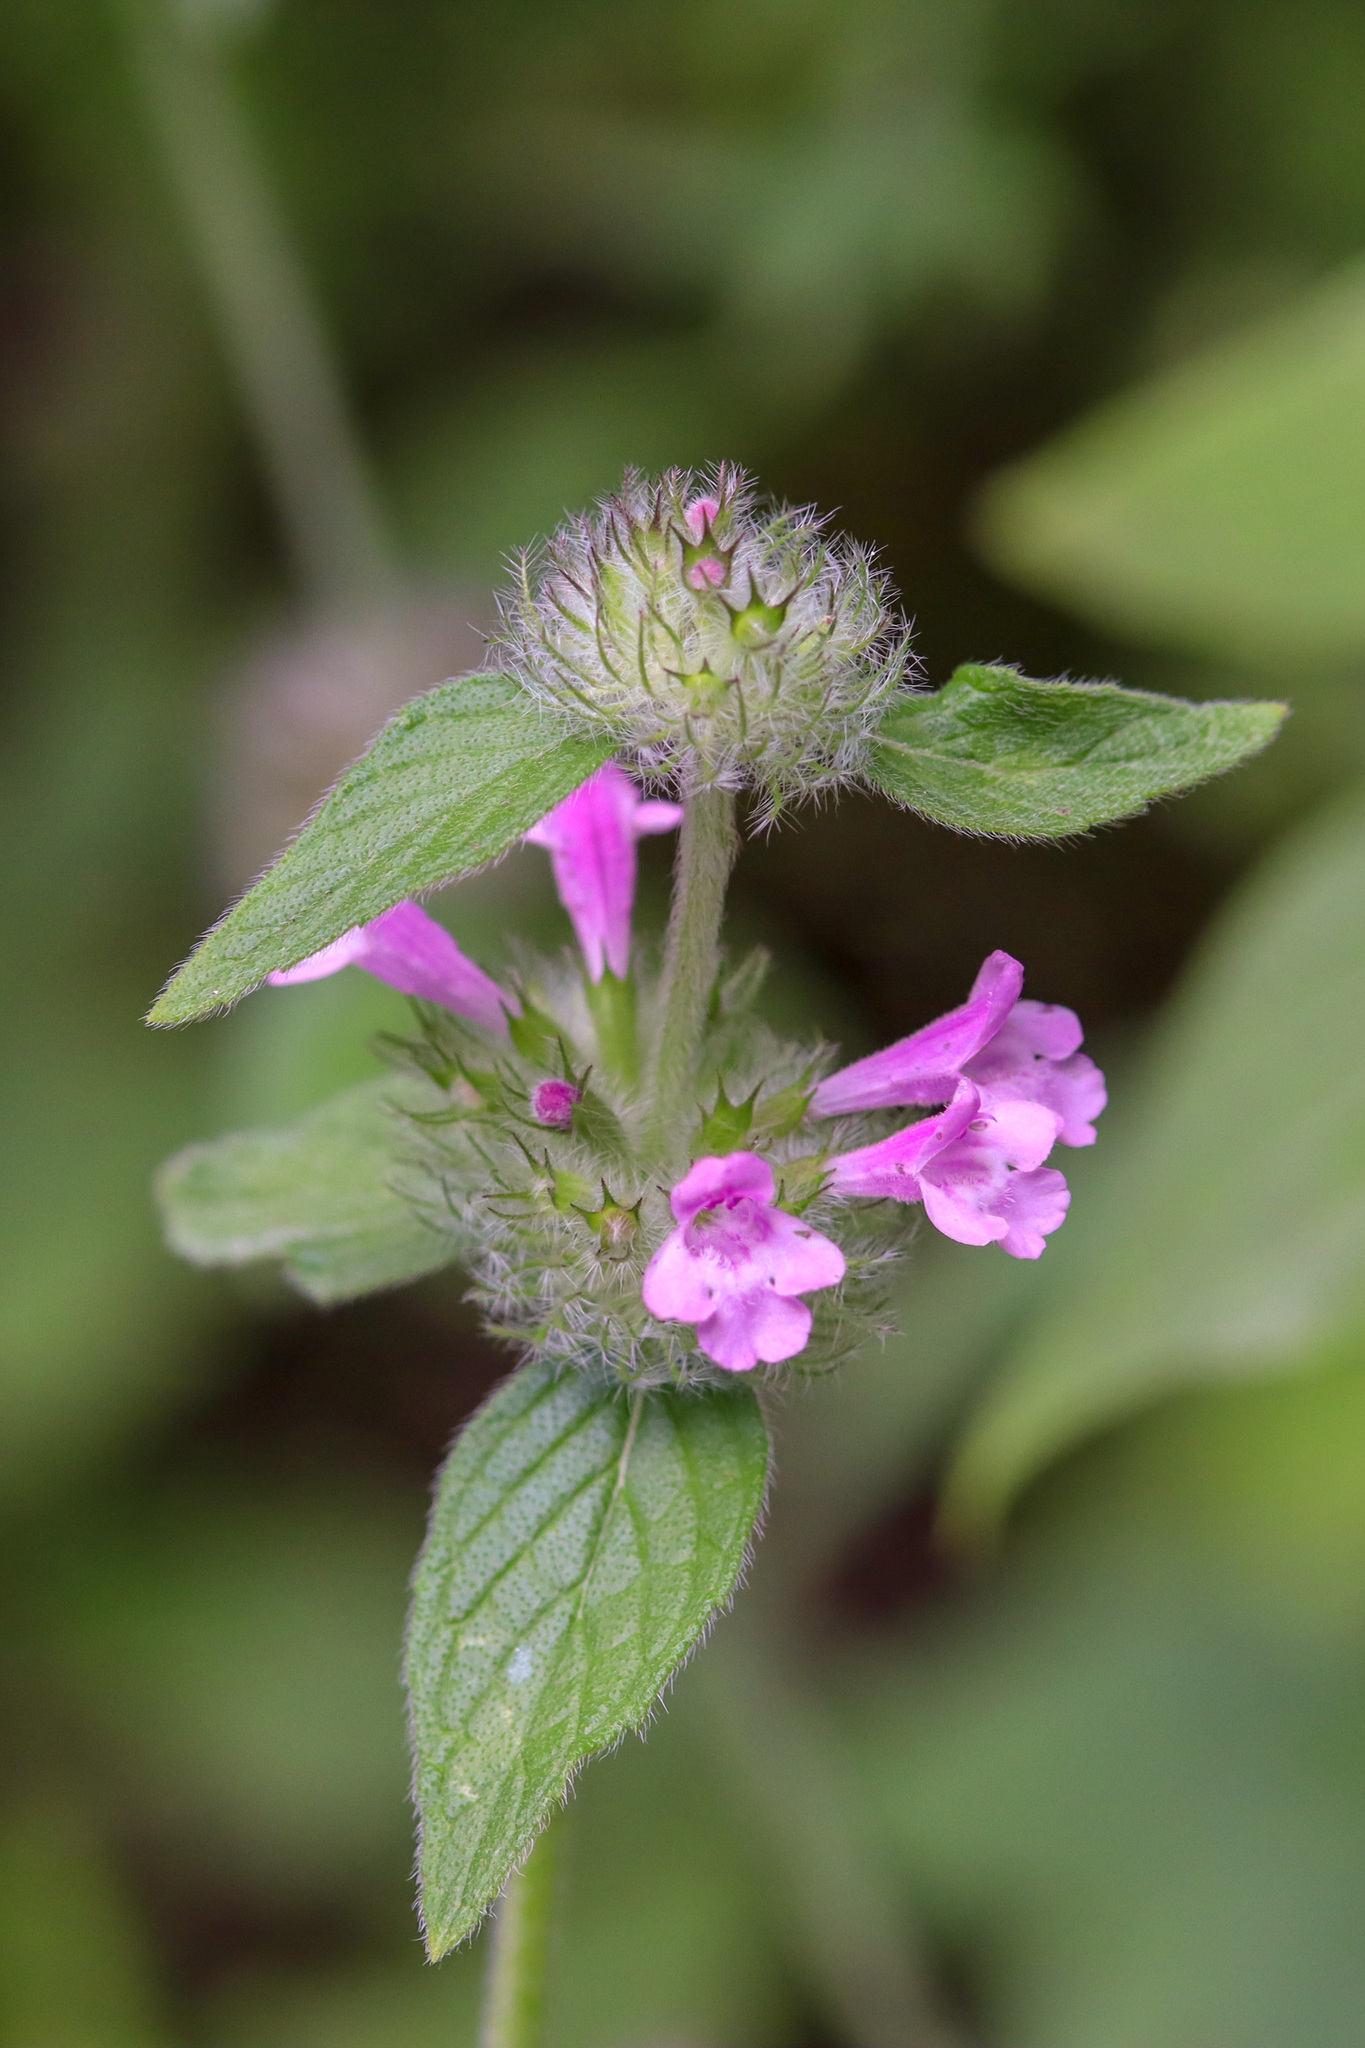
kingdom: Plantae
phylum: Tracheophyta
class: Magnoliopsida
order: Lamiales
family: Lamiaceae
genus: Clinopodium
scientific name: Clinopodium vulgare
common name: Wild basil
